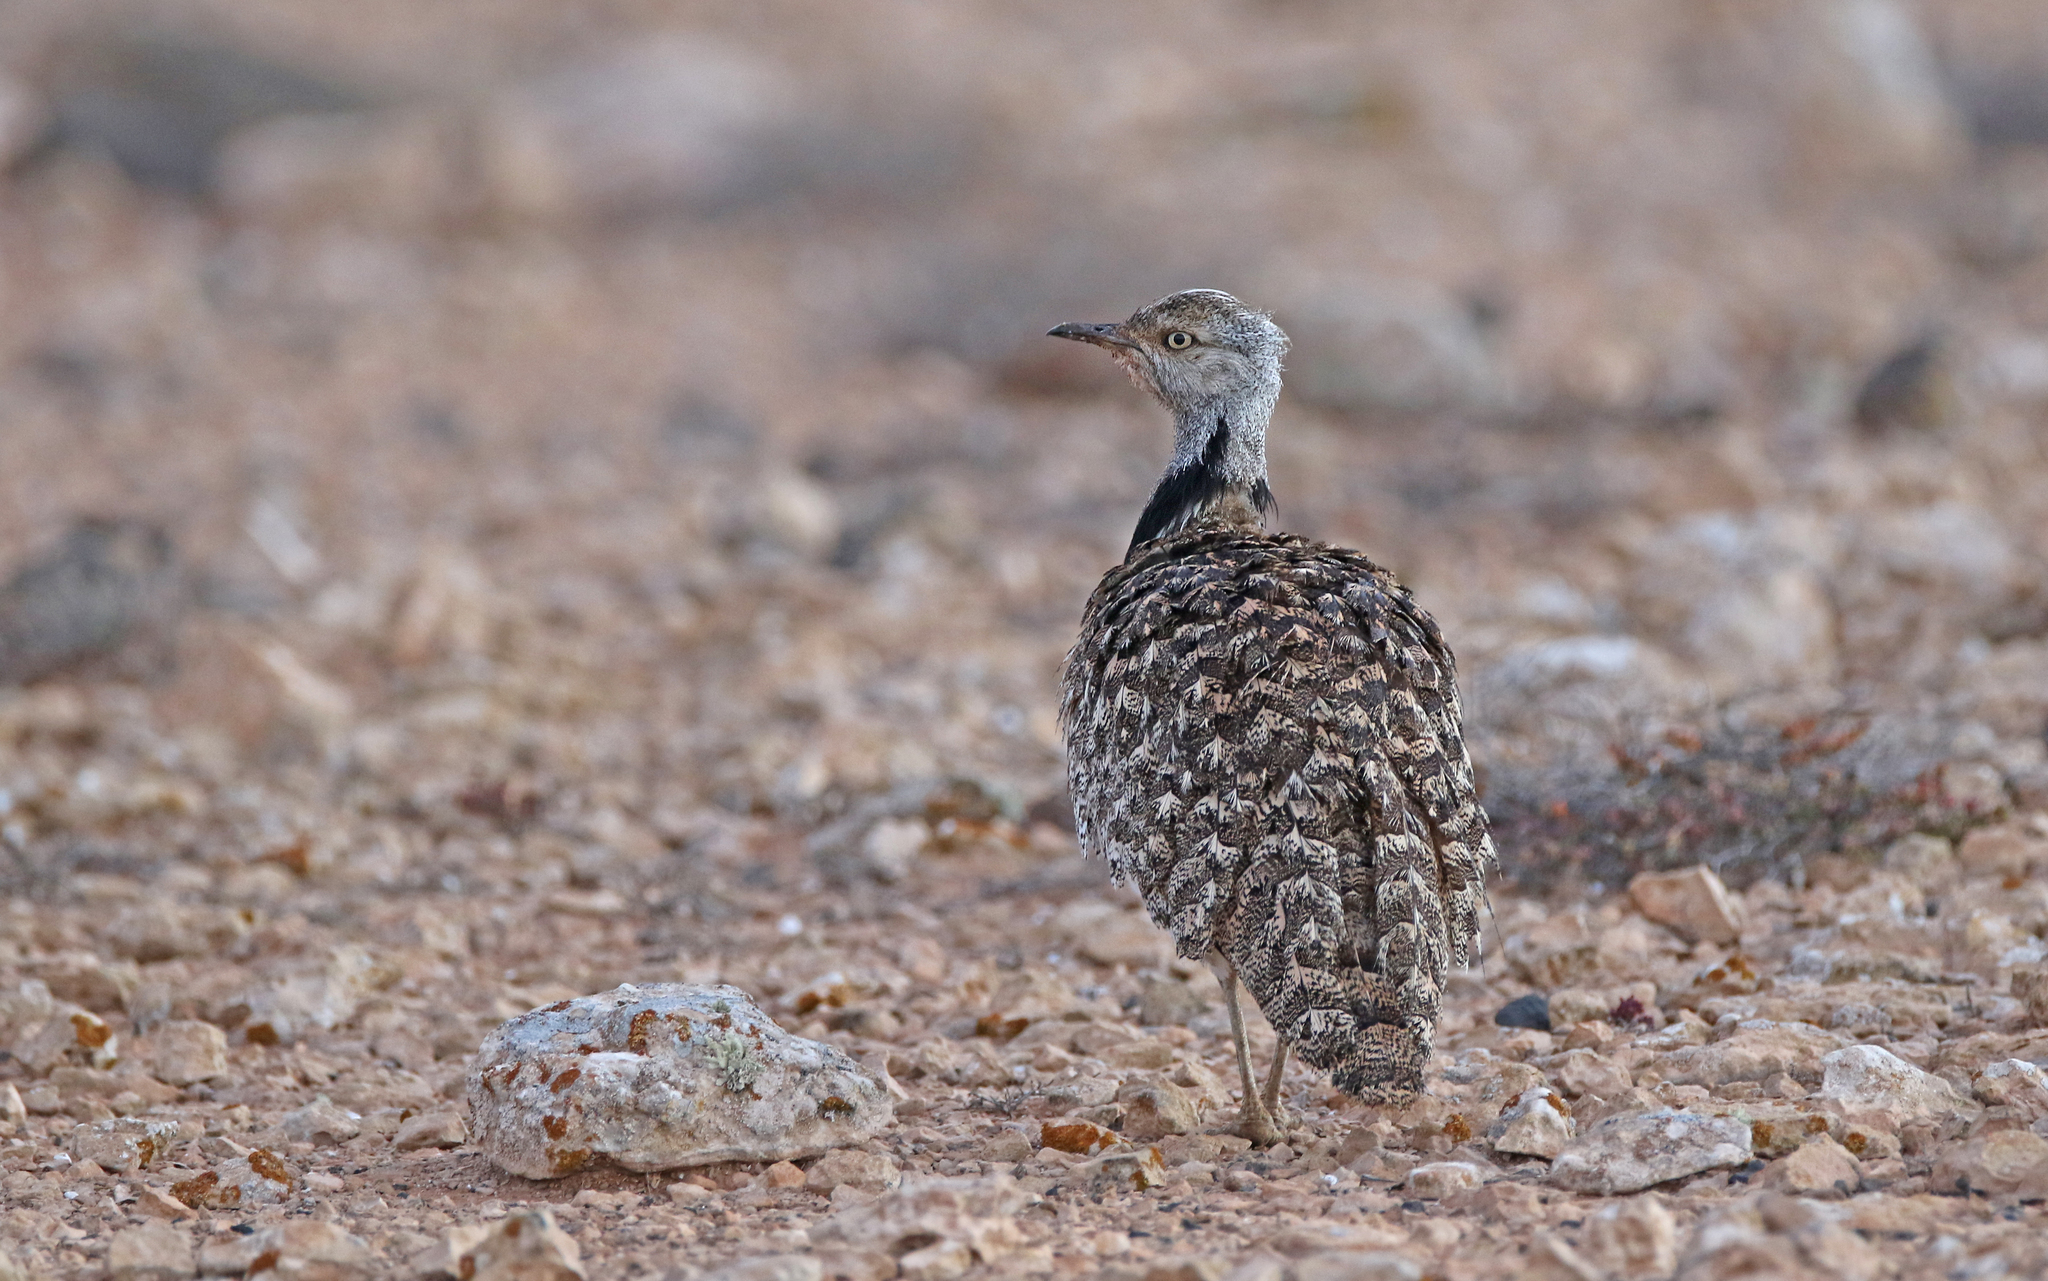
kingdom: Animalia
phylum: Chordata
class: Aves
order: Otidiformes
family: Otididae
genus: Chlamydotis
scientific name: Chlamydotis undulata
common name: Houbara bustard
